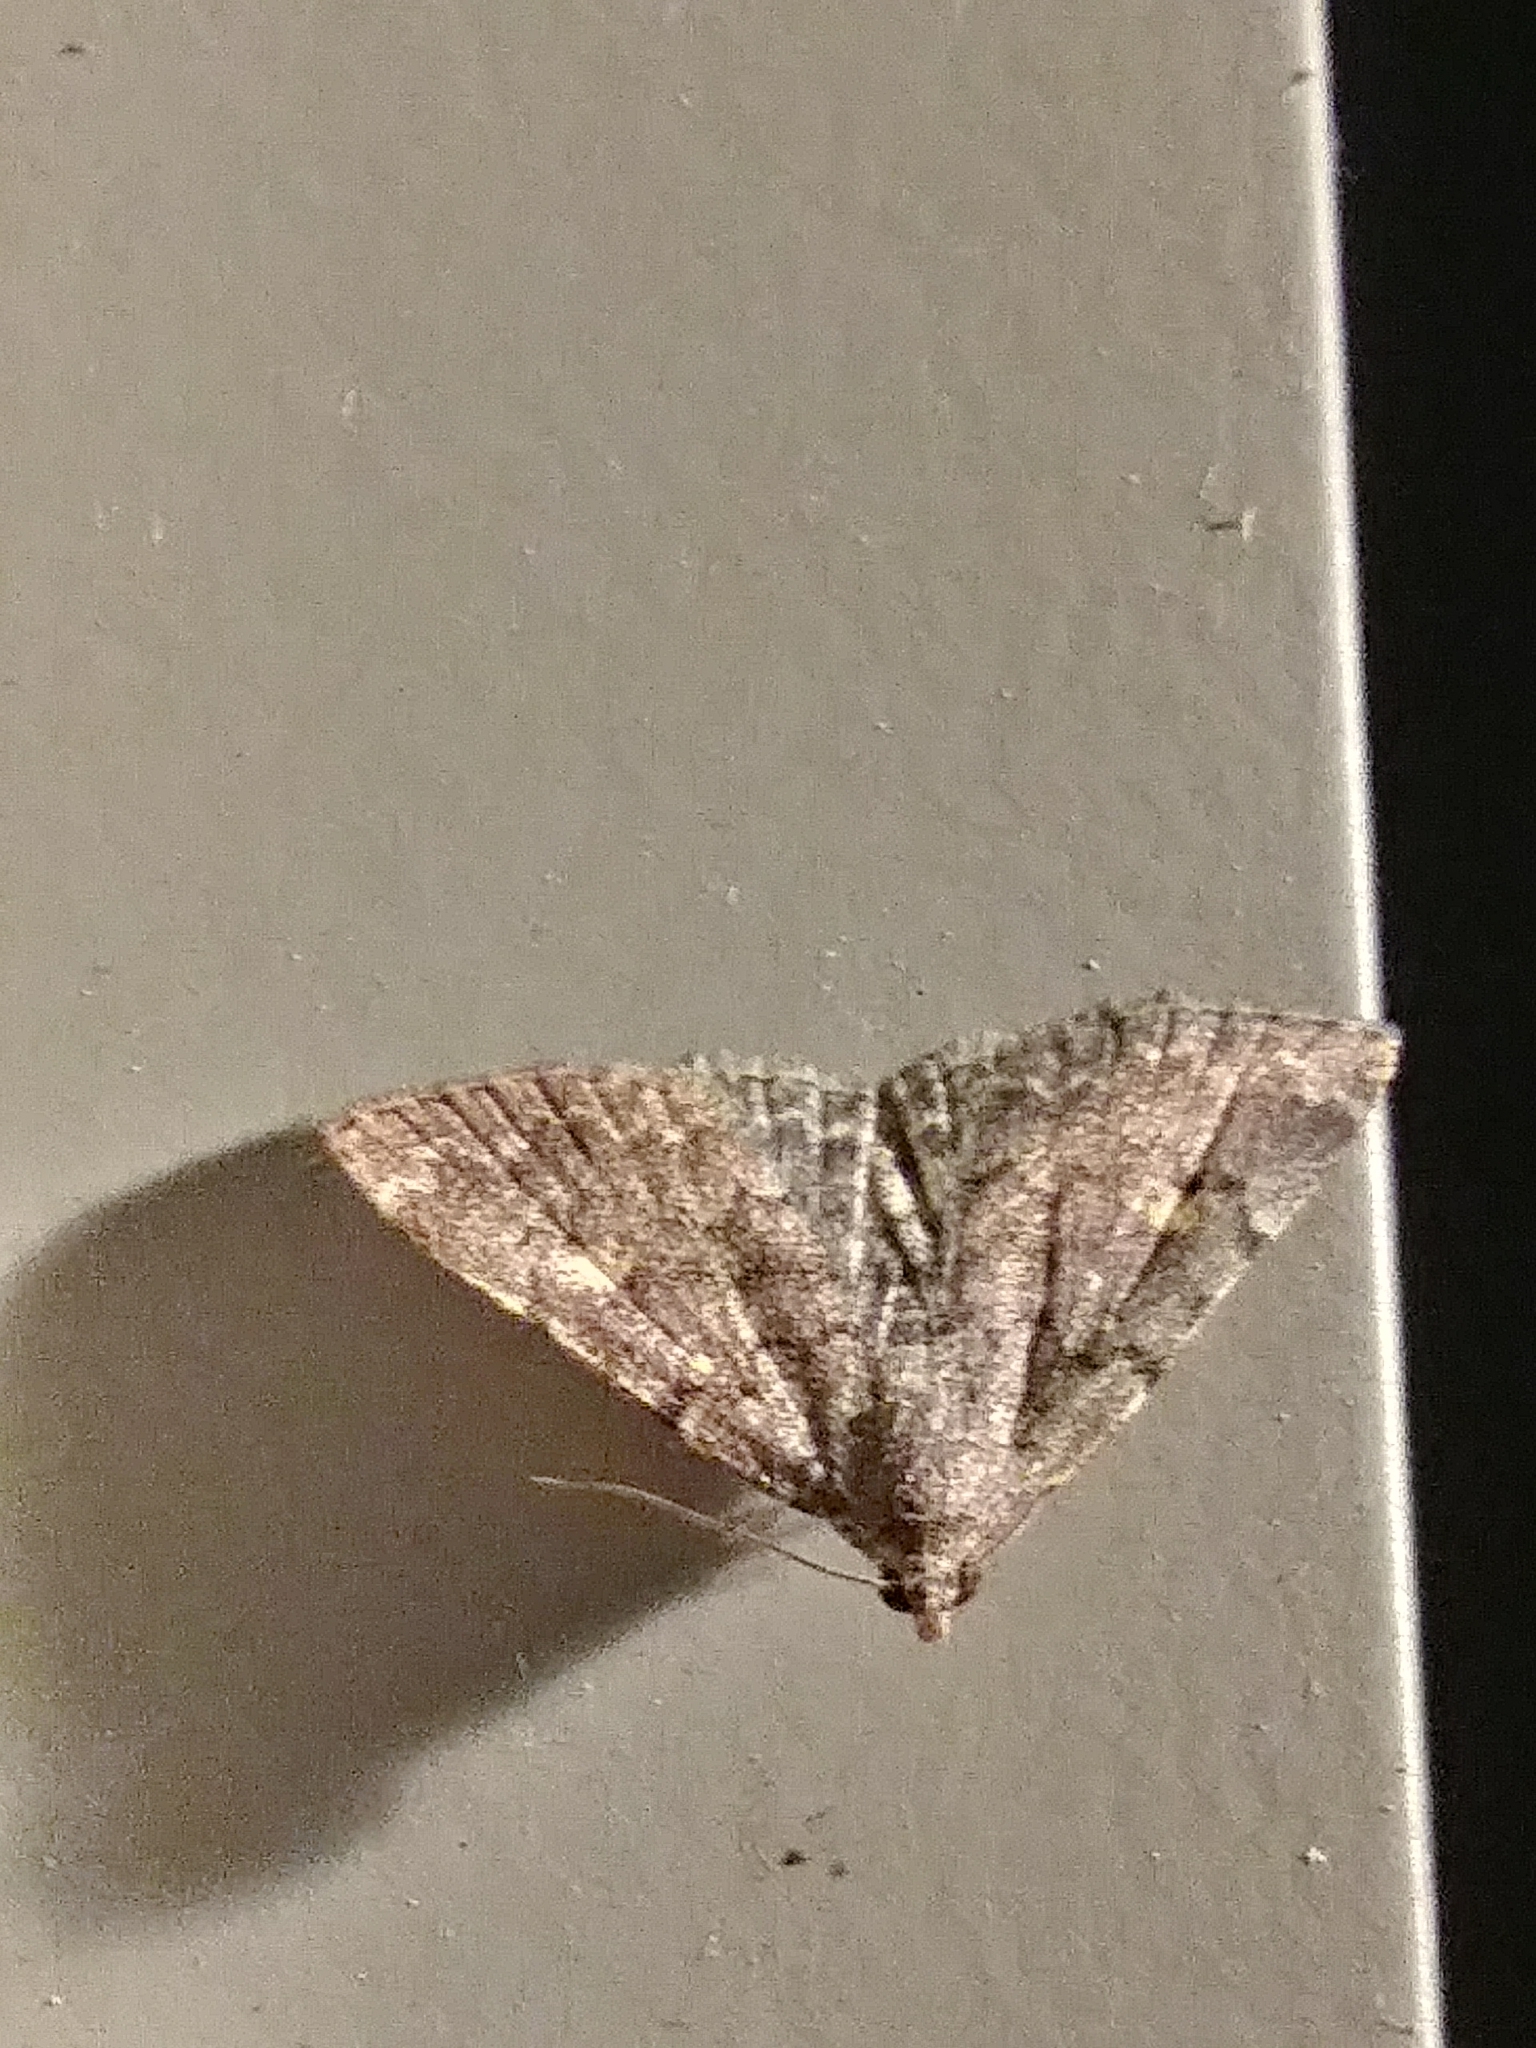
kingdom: Animalia
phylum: Arthropoda
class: Insecta
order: Lepidoptera
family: Erebidae
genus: Idia
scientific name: Idia aemula
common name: Common idia moth
